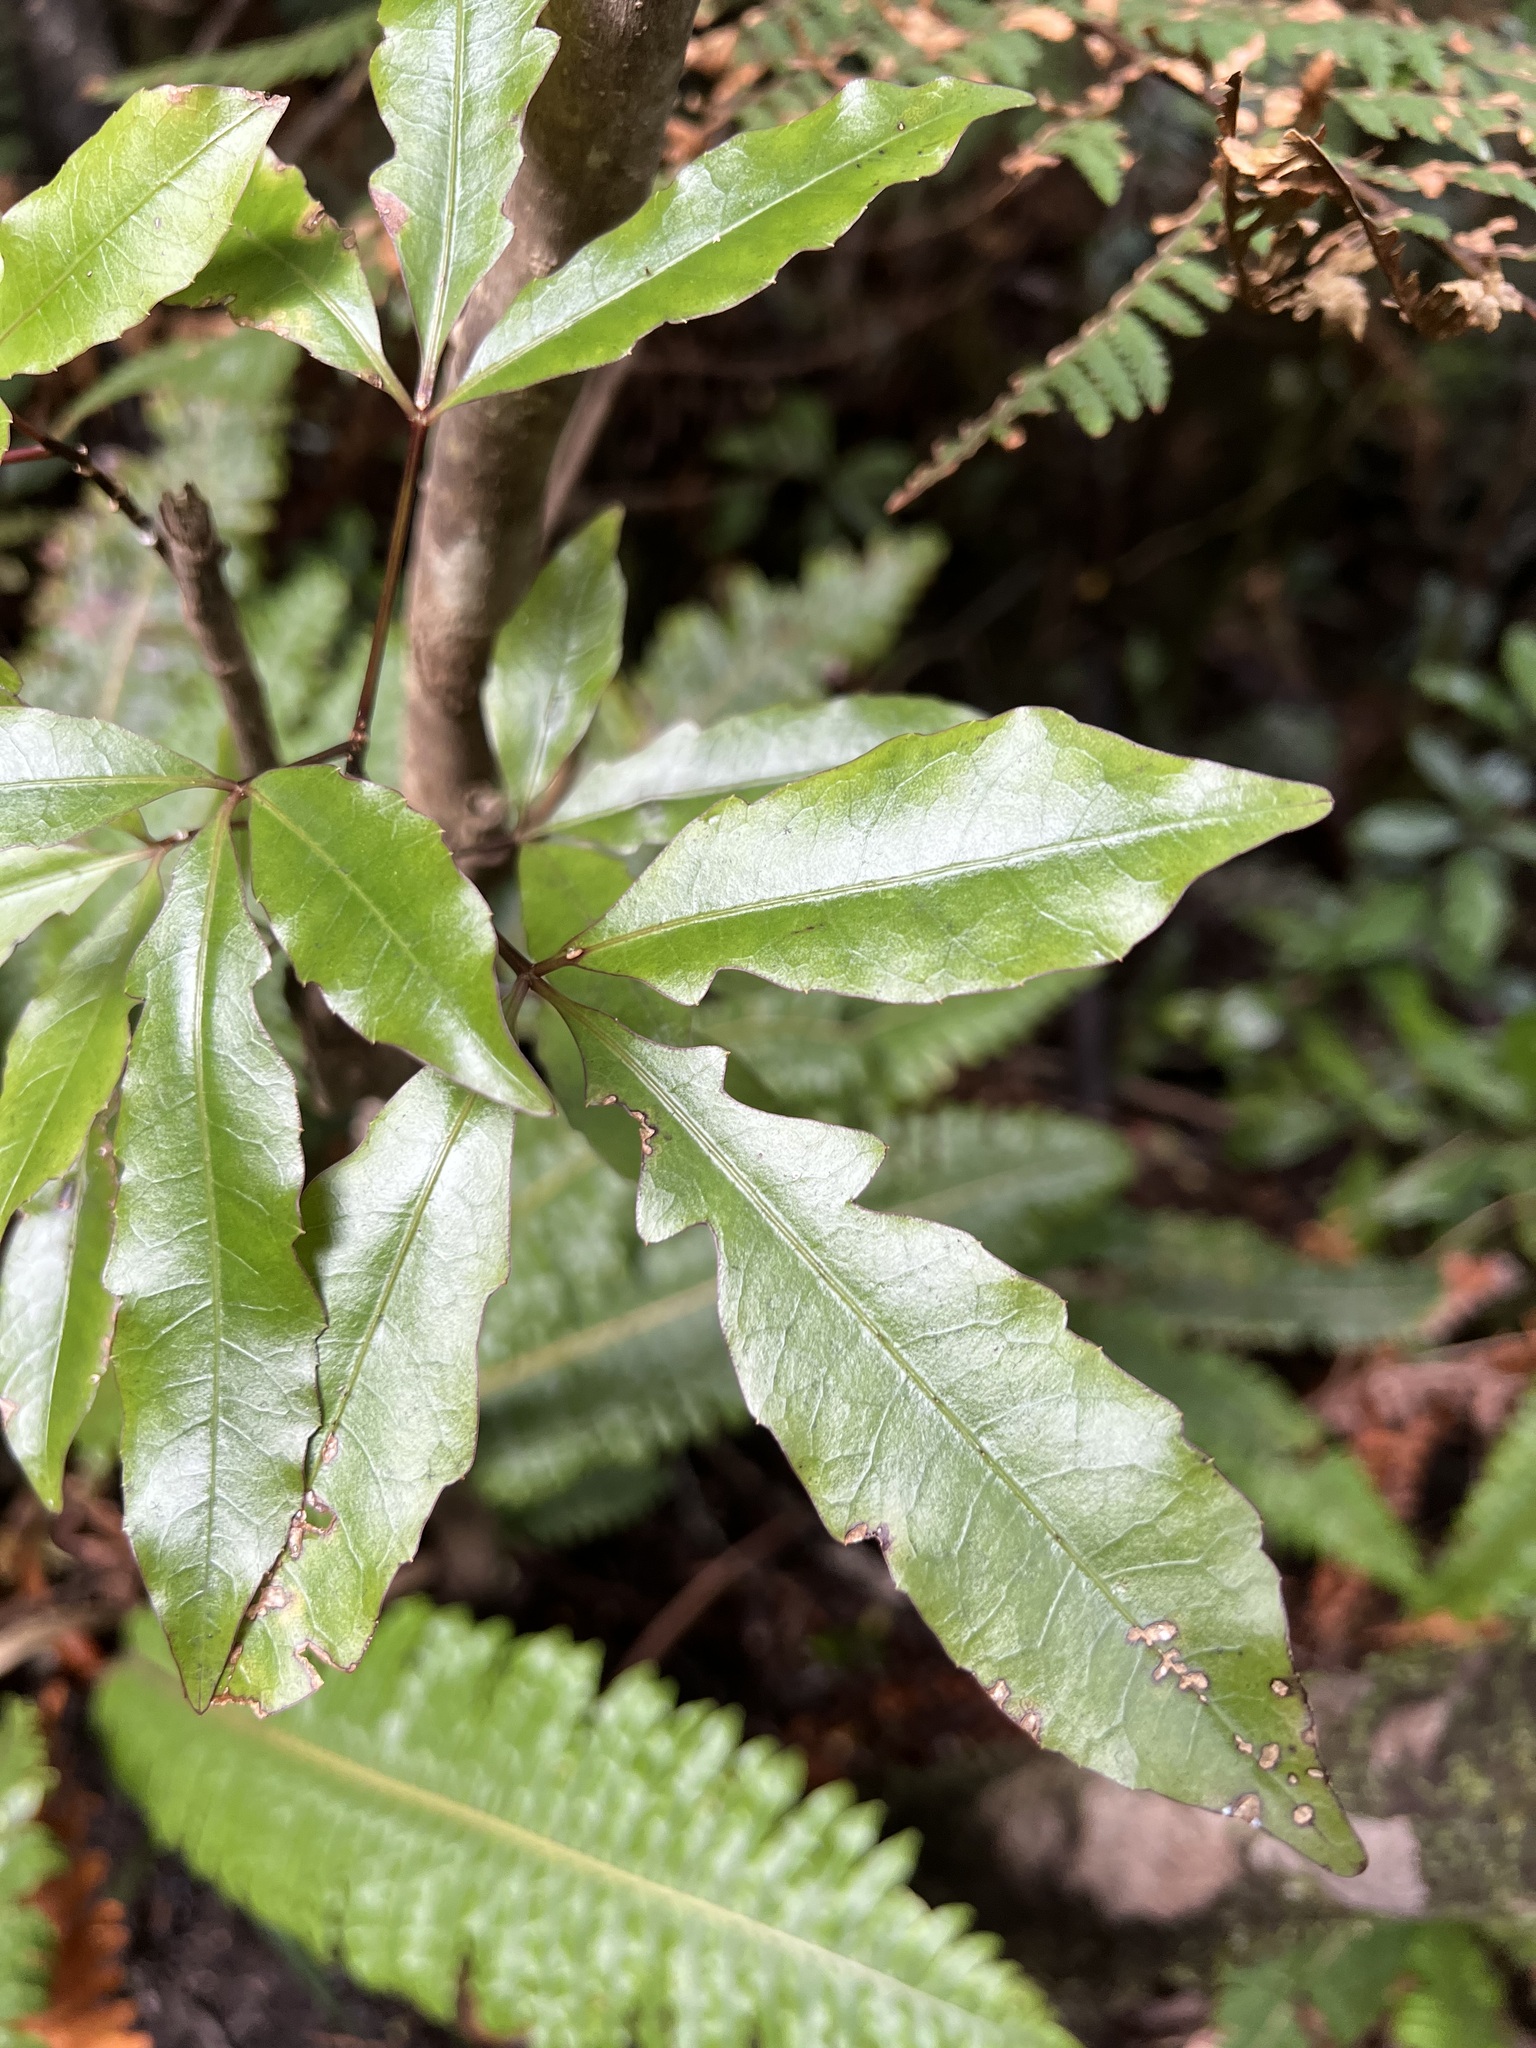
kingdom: Plantae
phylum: Tracheophyta
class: Magnoliopsida
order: Apiales
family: Araliaceae
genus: Raukaua
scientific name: Raukaua edgerleyi
